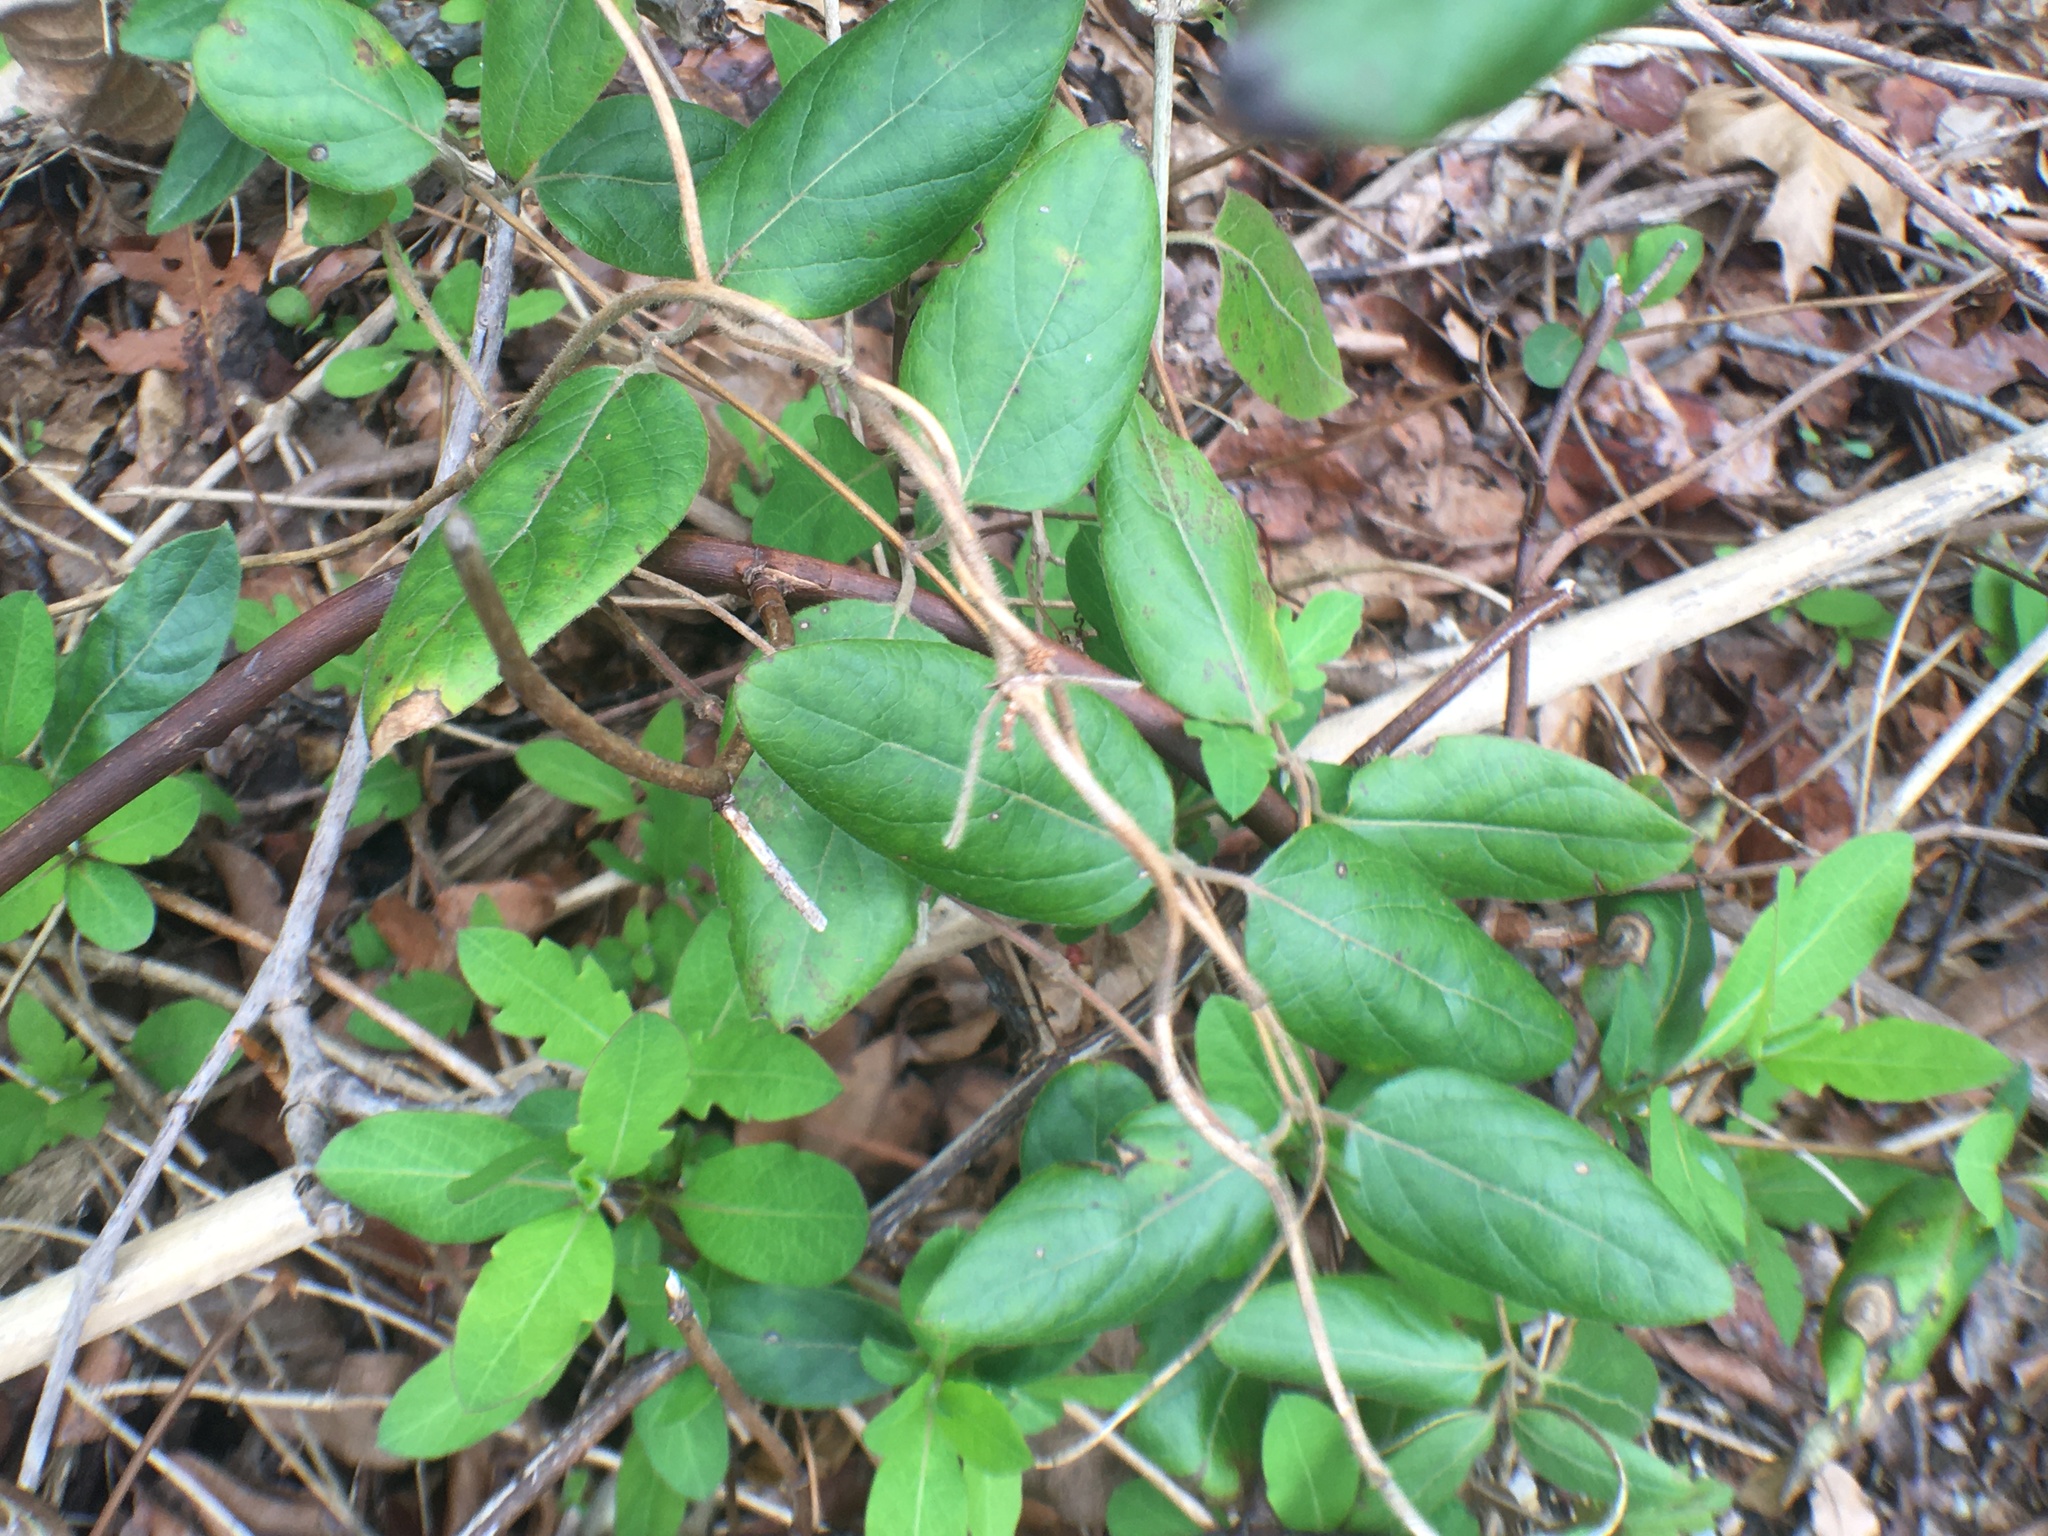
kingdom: Plantae
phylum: Tracheophyta
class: Magnoliopsida
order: Dipsacales
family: Caprifoliaceae
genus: Lonicera
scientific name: Lonicera japonica
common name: Japanese honeysuckle
